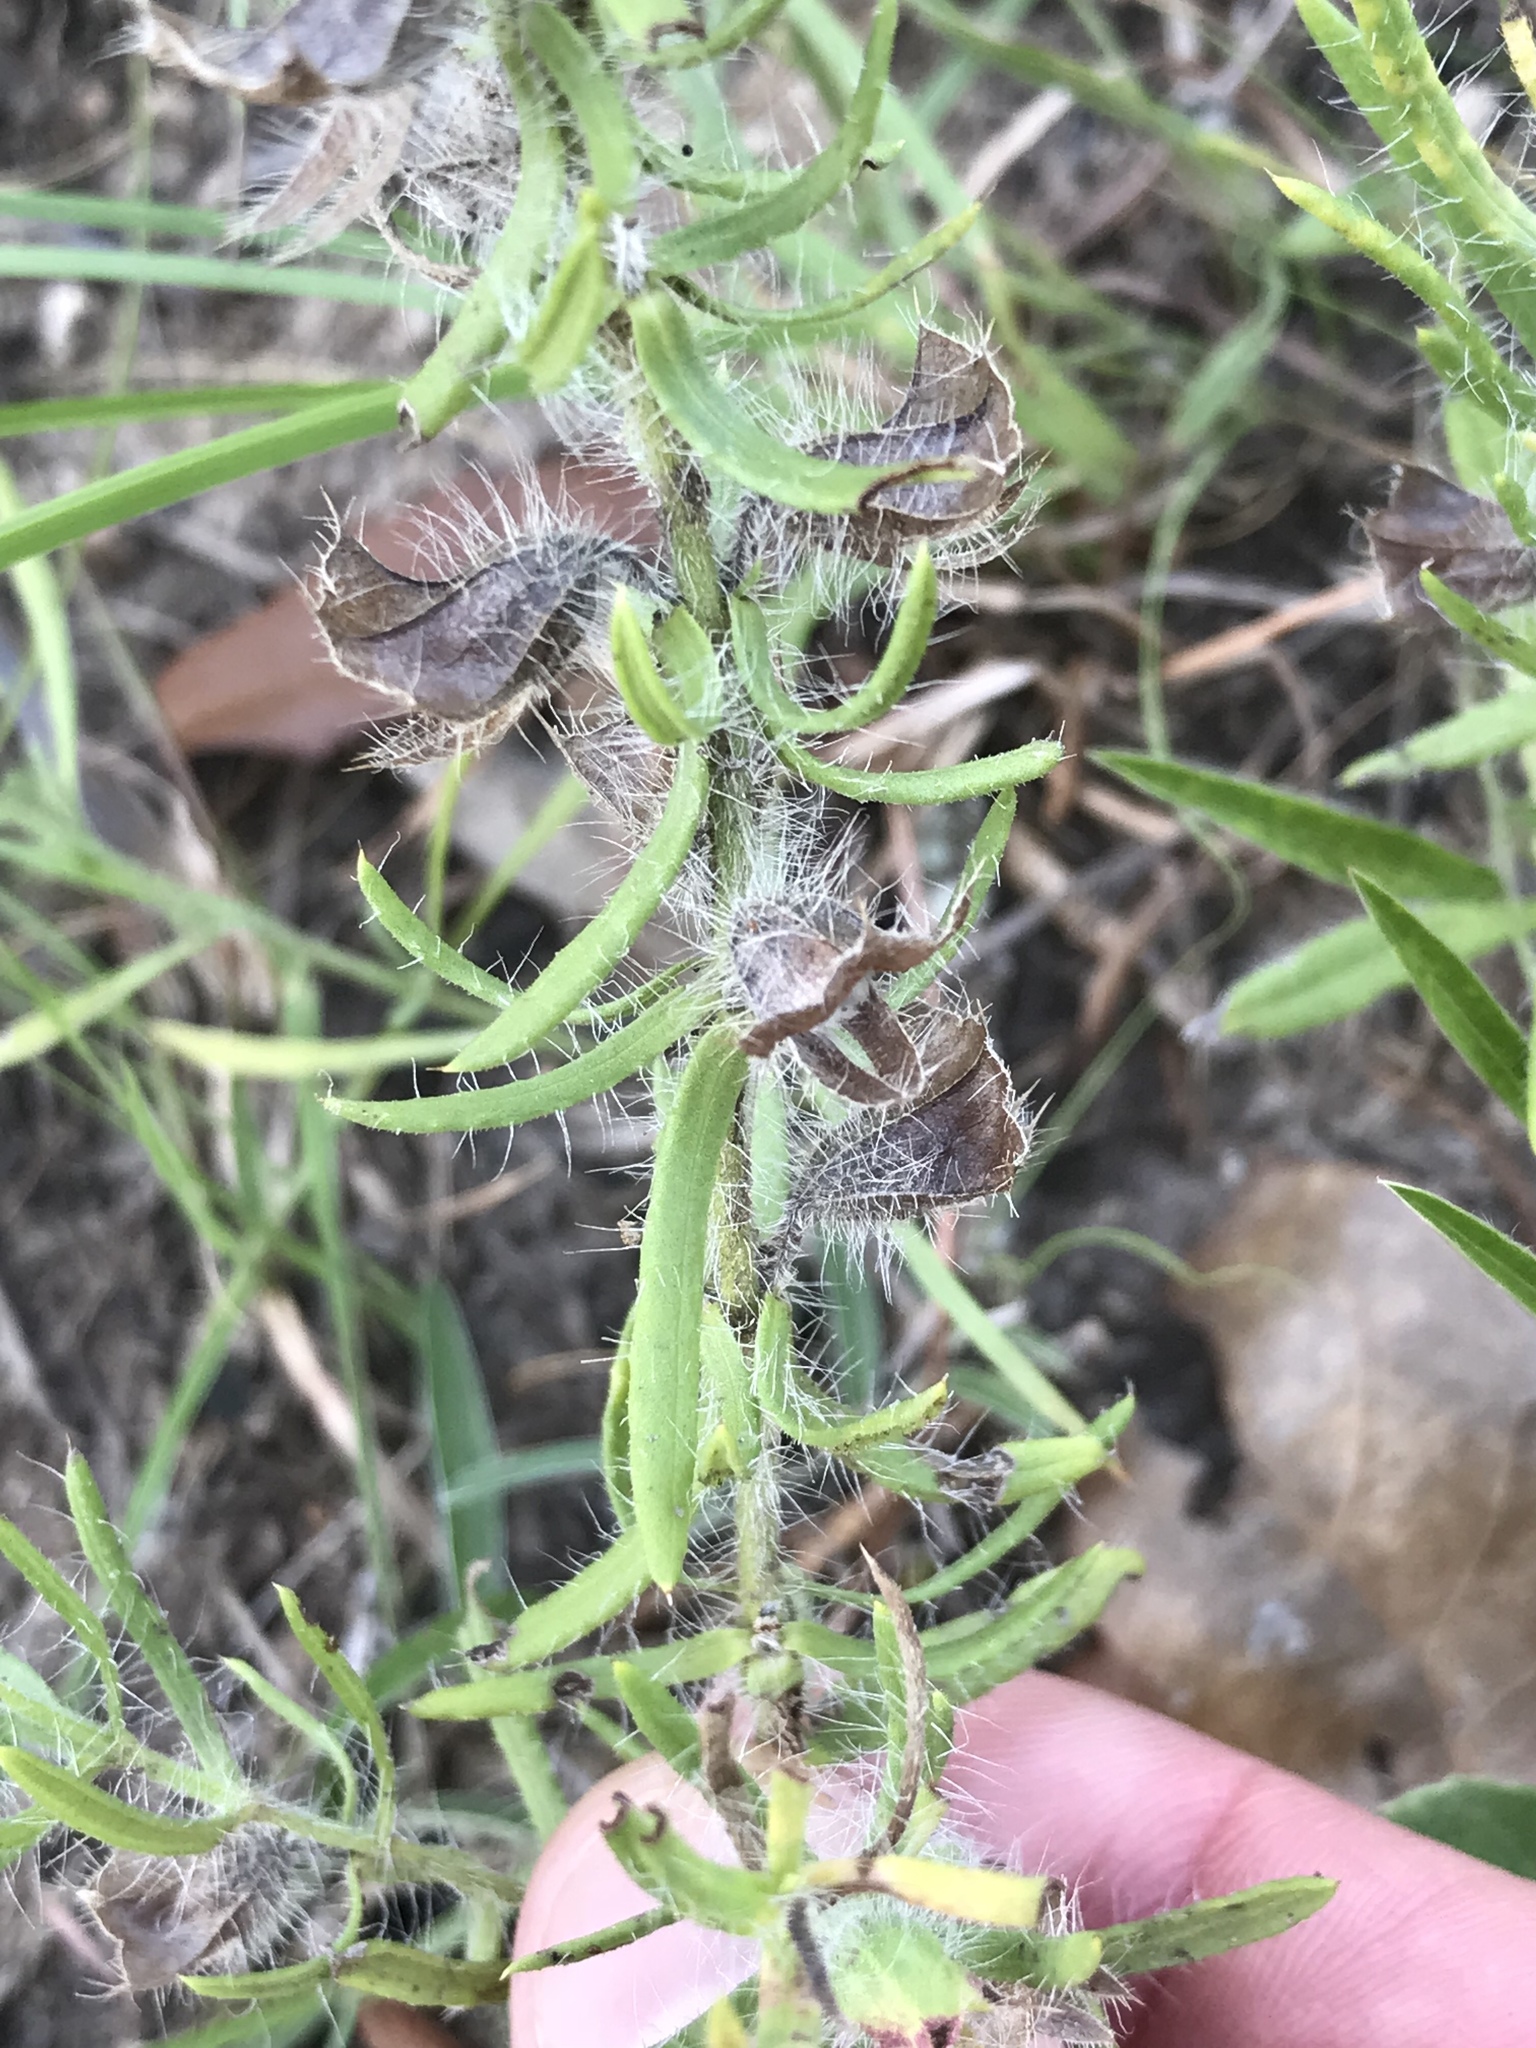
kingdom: Plantae
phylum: Tracheophyta
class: Magnoliopsida
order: Lamiales
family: Lamiaceae
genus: Salvia
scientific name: Salvia texana
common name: Texas sage
